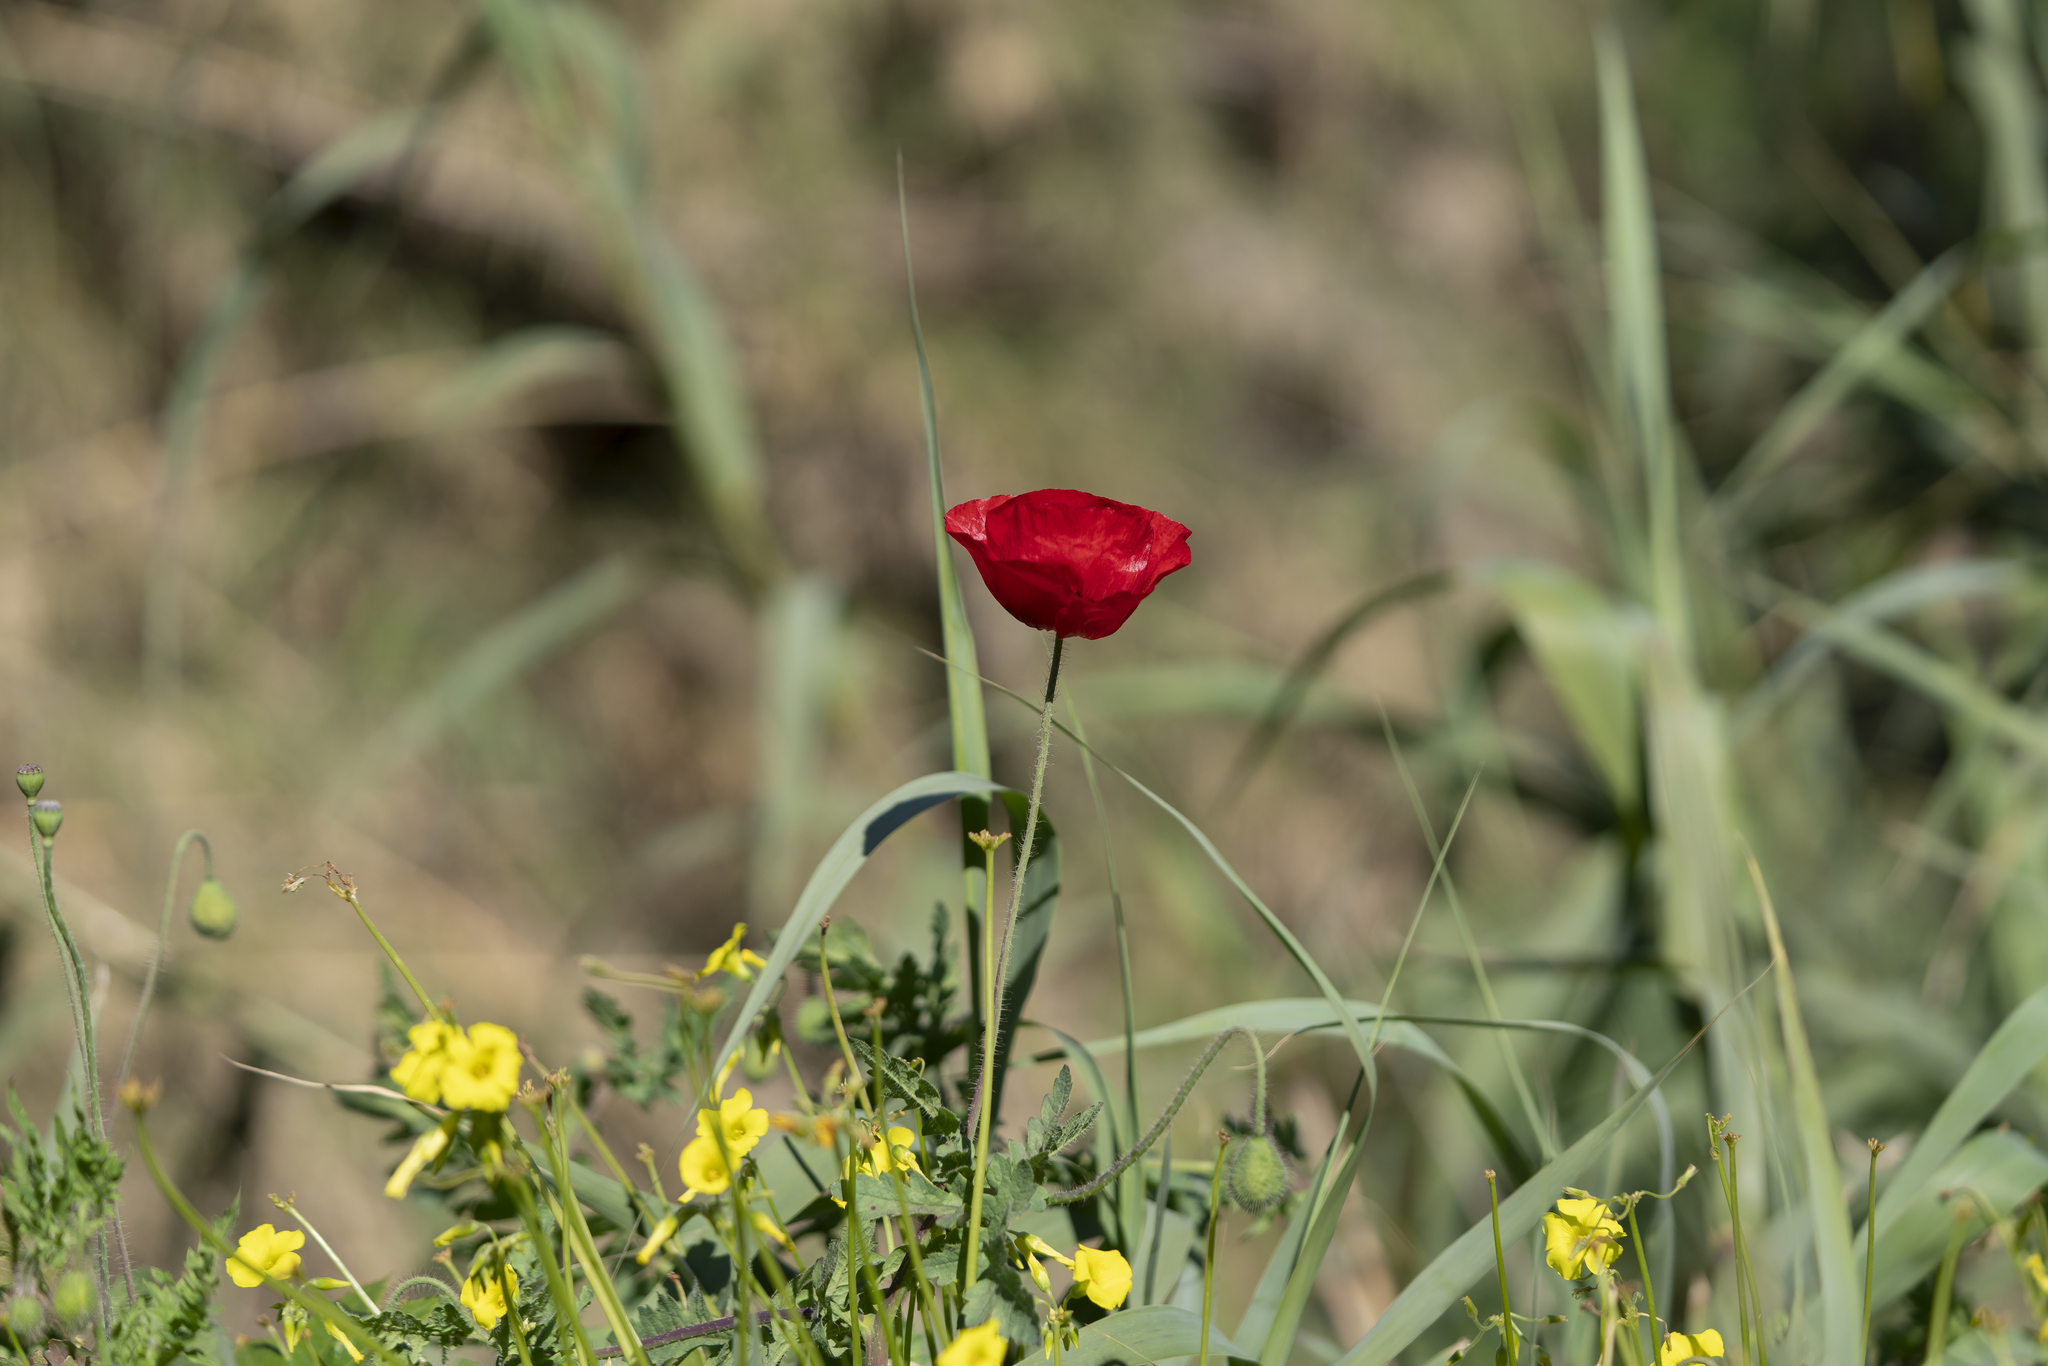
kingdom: Plantae
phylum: Tracheophyta
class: Magnoliopsida
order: Ranunculales
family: Papaveraceae
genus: Papaver
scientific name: Papaver rhoeas
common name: Corn poppy
